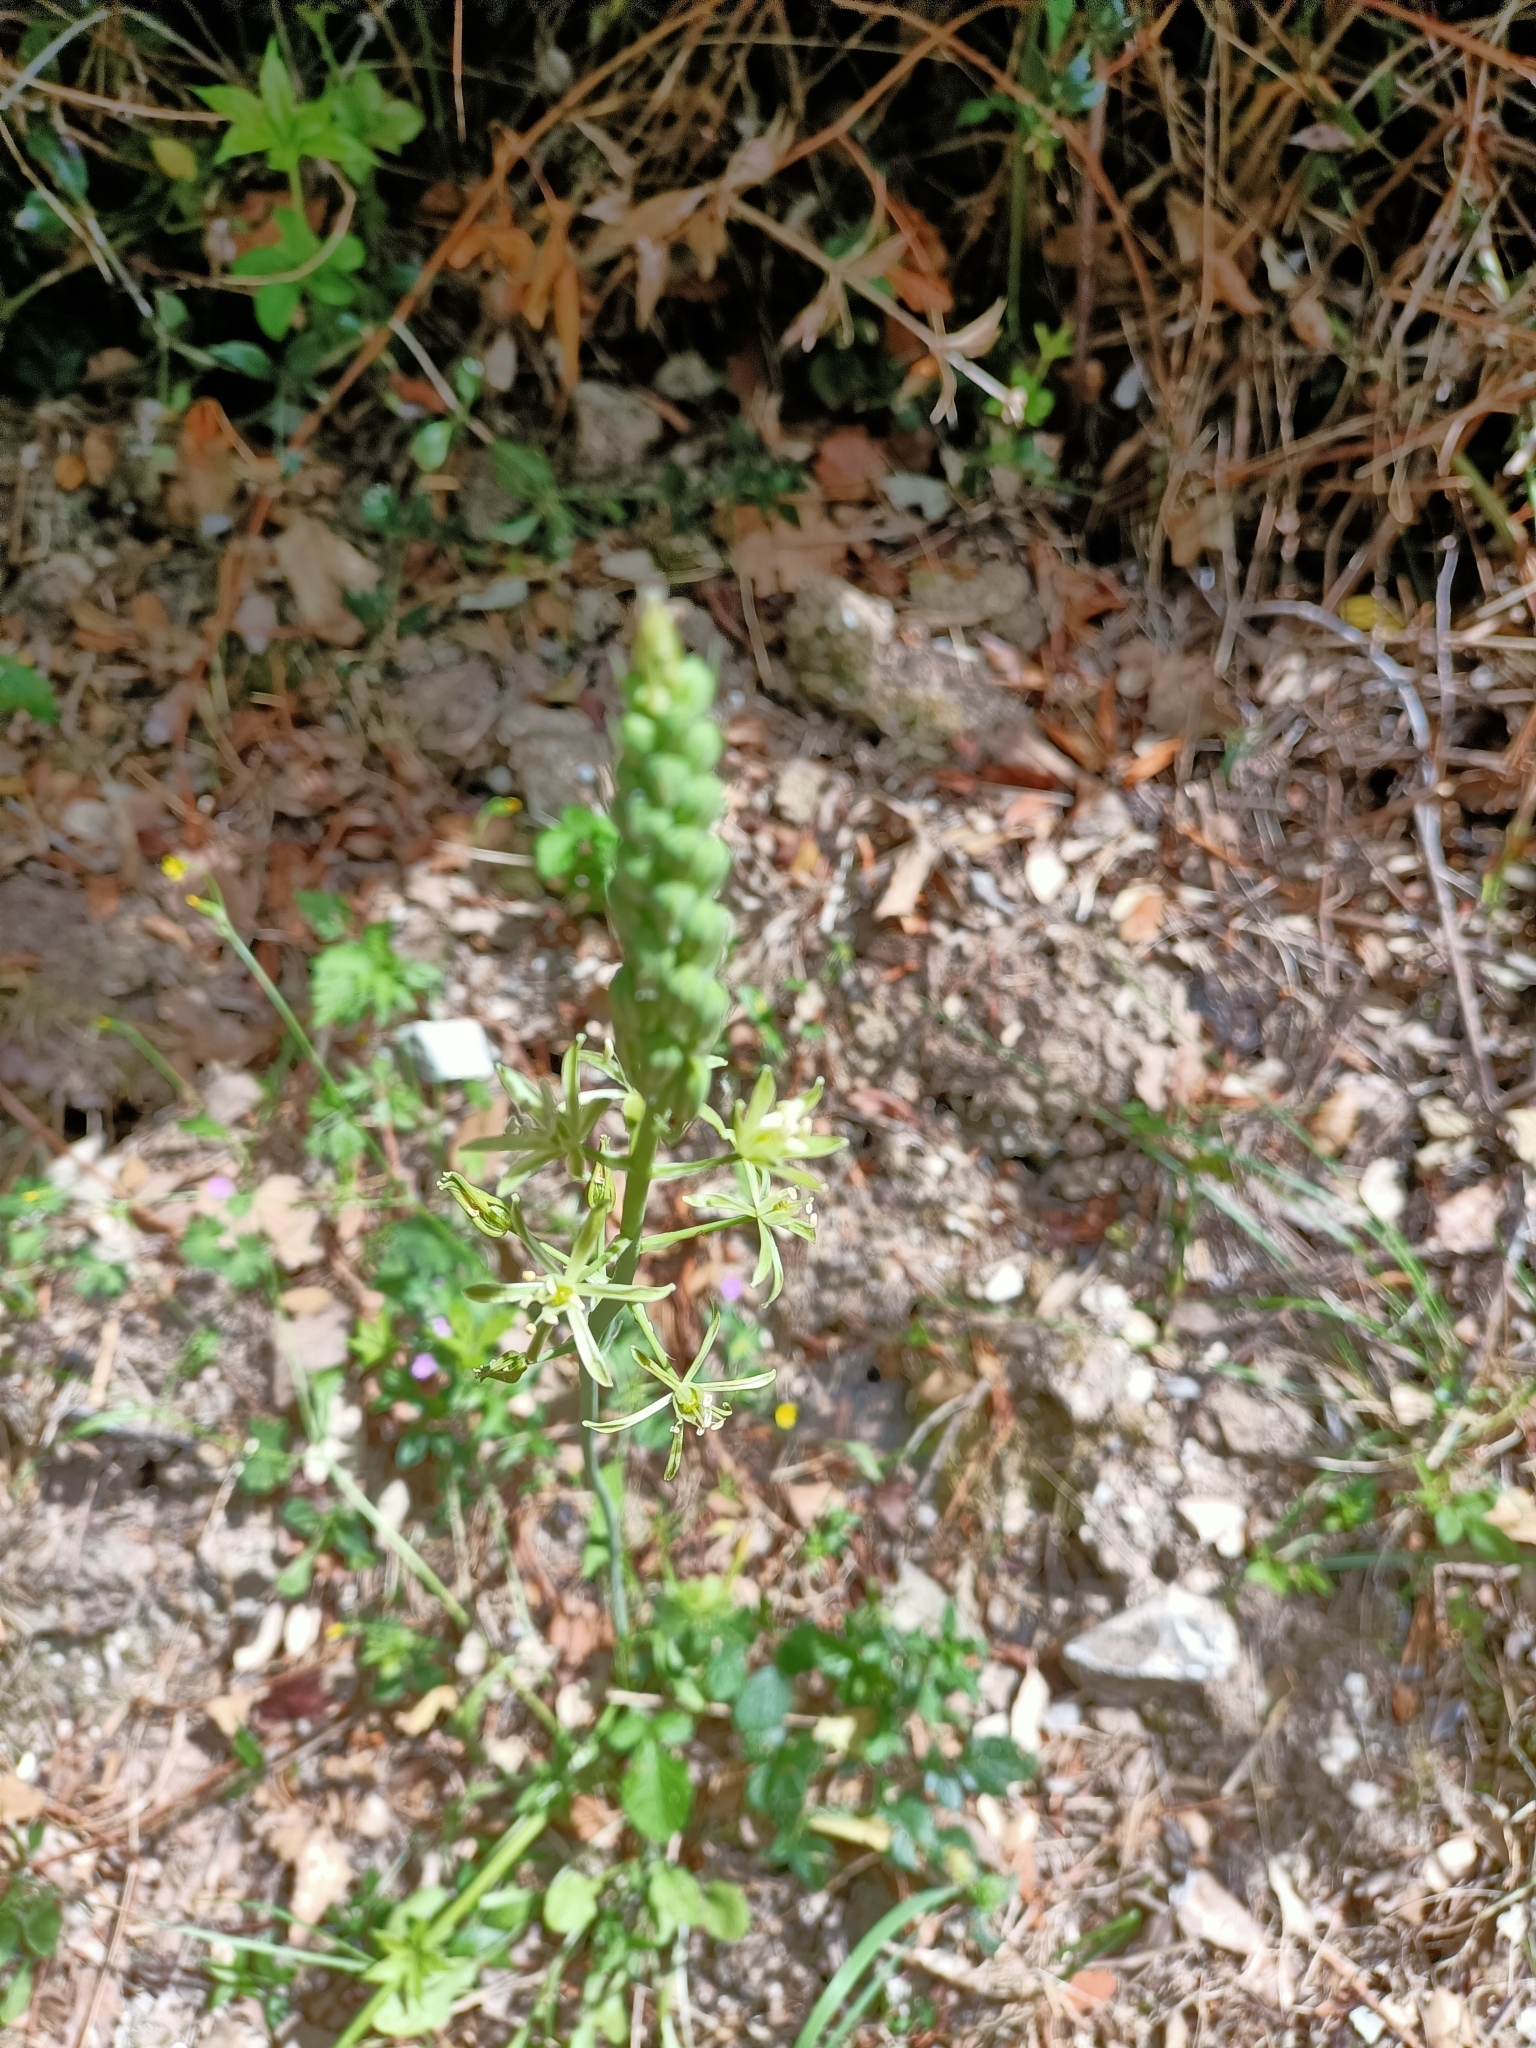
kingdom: Plantae
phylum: Tracheophyta
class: Liliopsida
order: Asparagales
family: Asparagaceae
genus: Ornithogalum
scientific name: Ornithogalum pyrenaicum
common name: Spiked star-of-bethlehem
